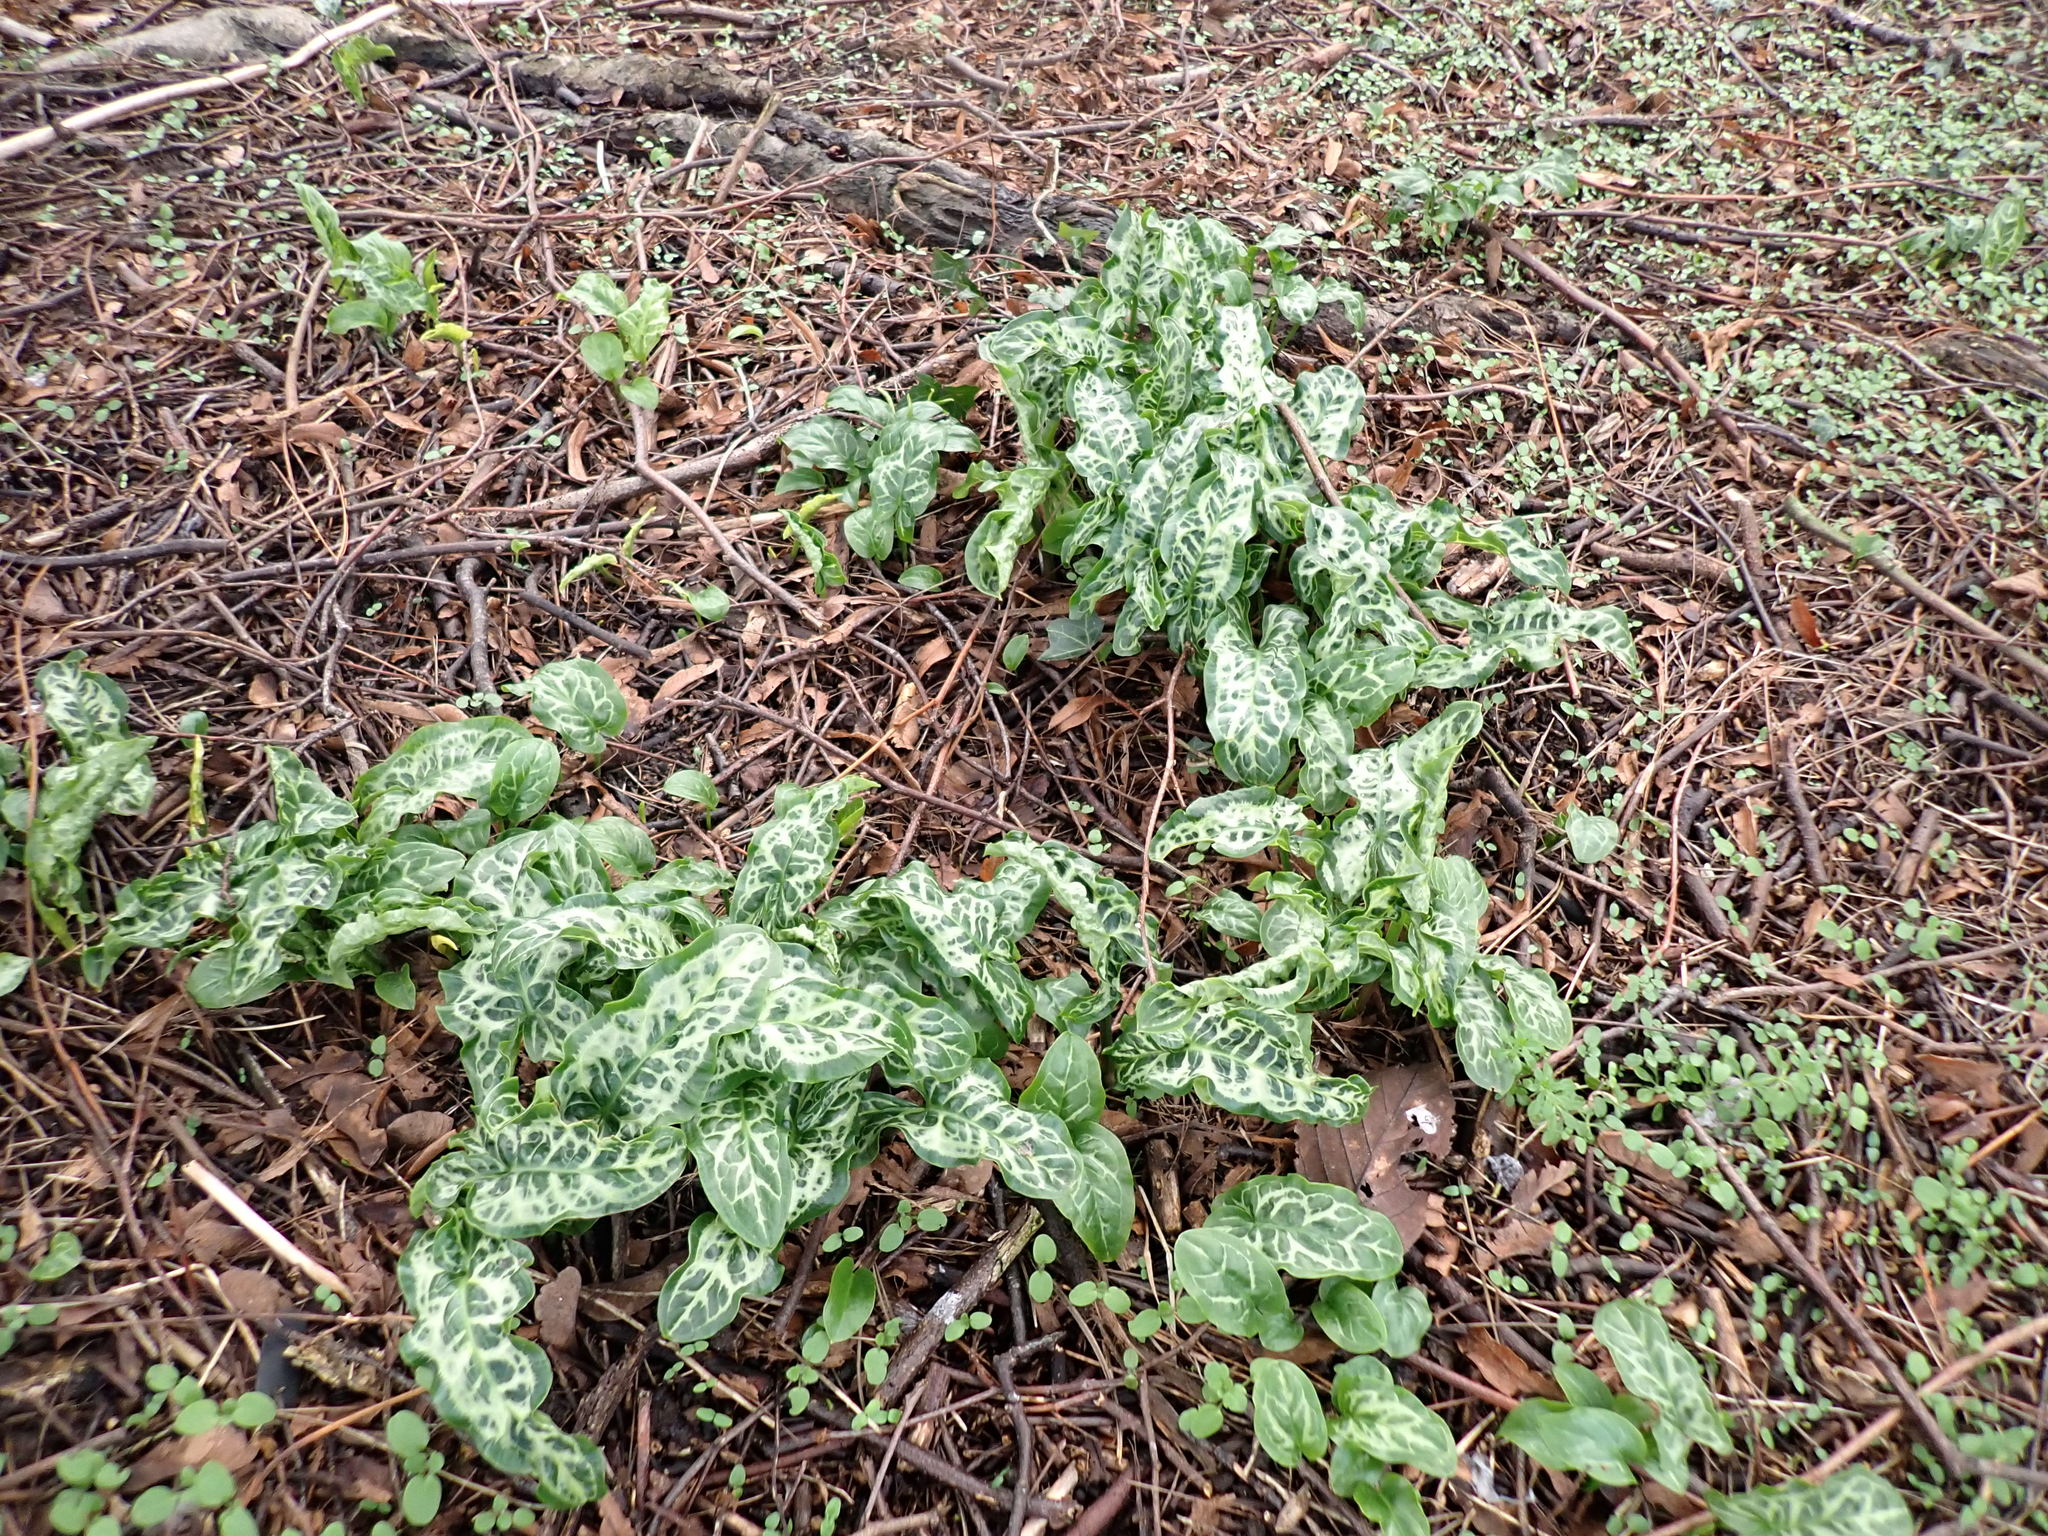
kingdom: Plantae
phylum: Tracheophyta
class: Liliopsida
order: Alismatales
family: Araceae
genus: Arum
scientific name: Arum italicum
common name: Italian lords-and-ladies
